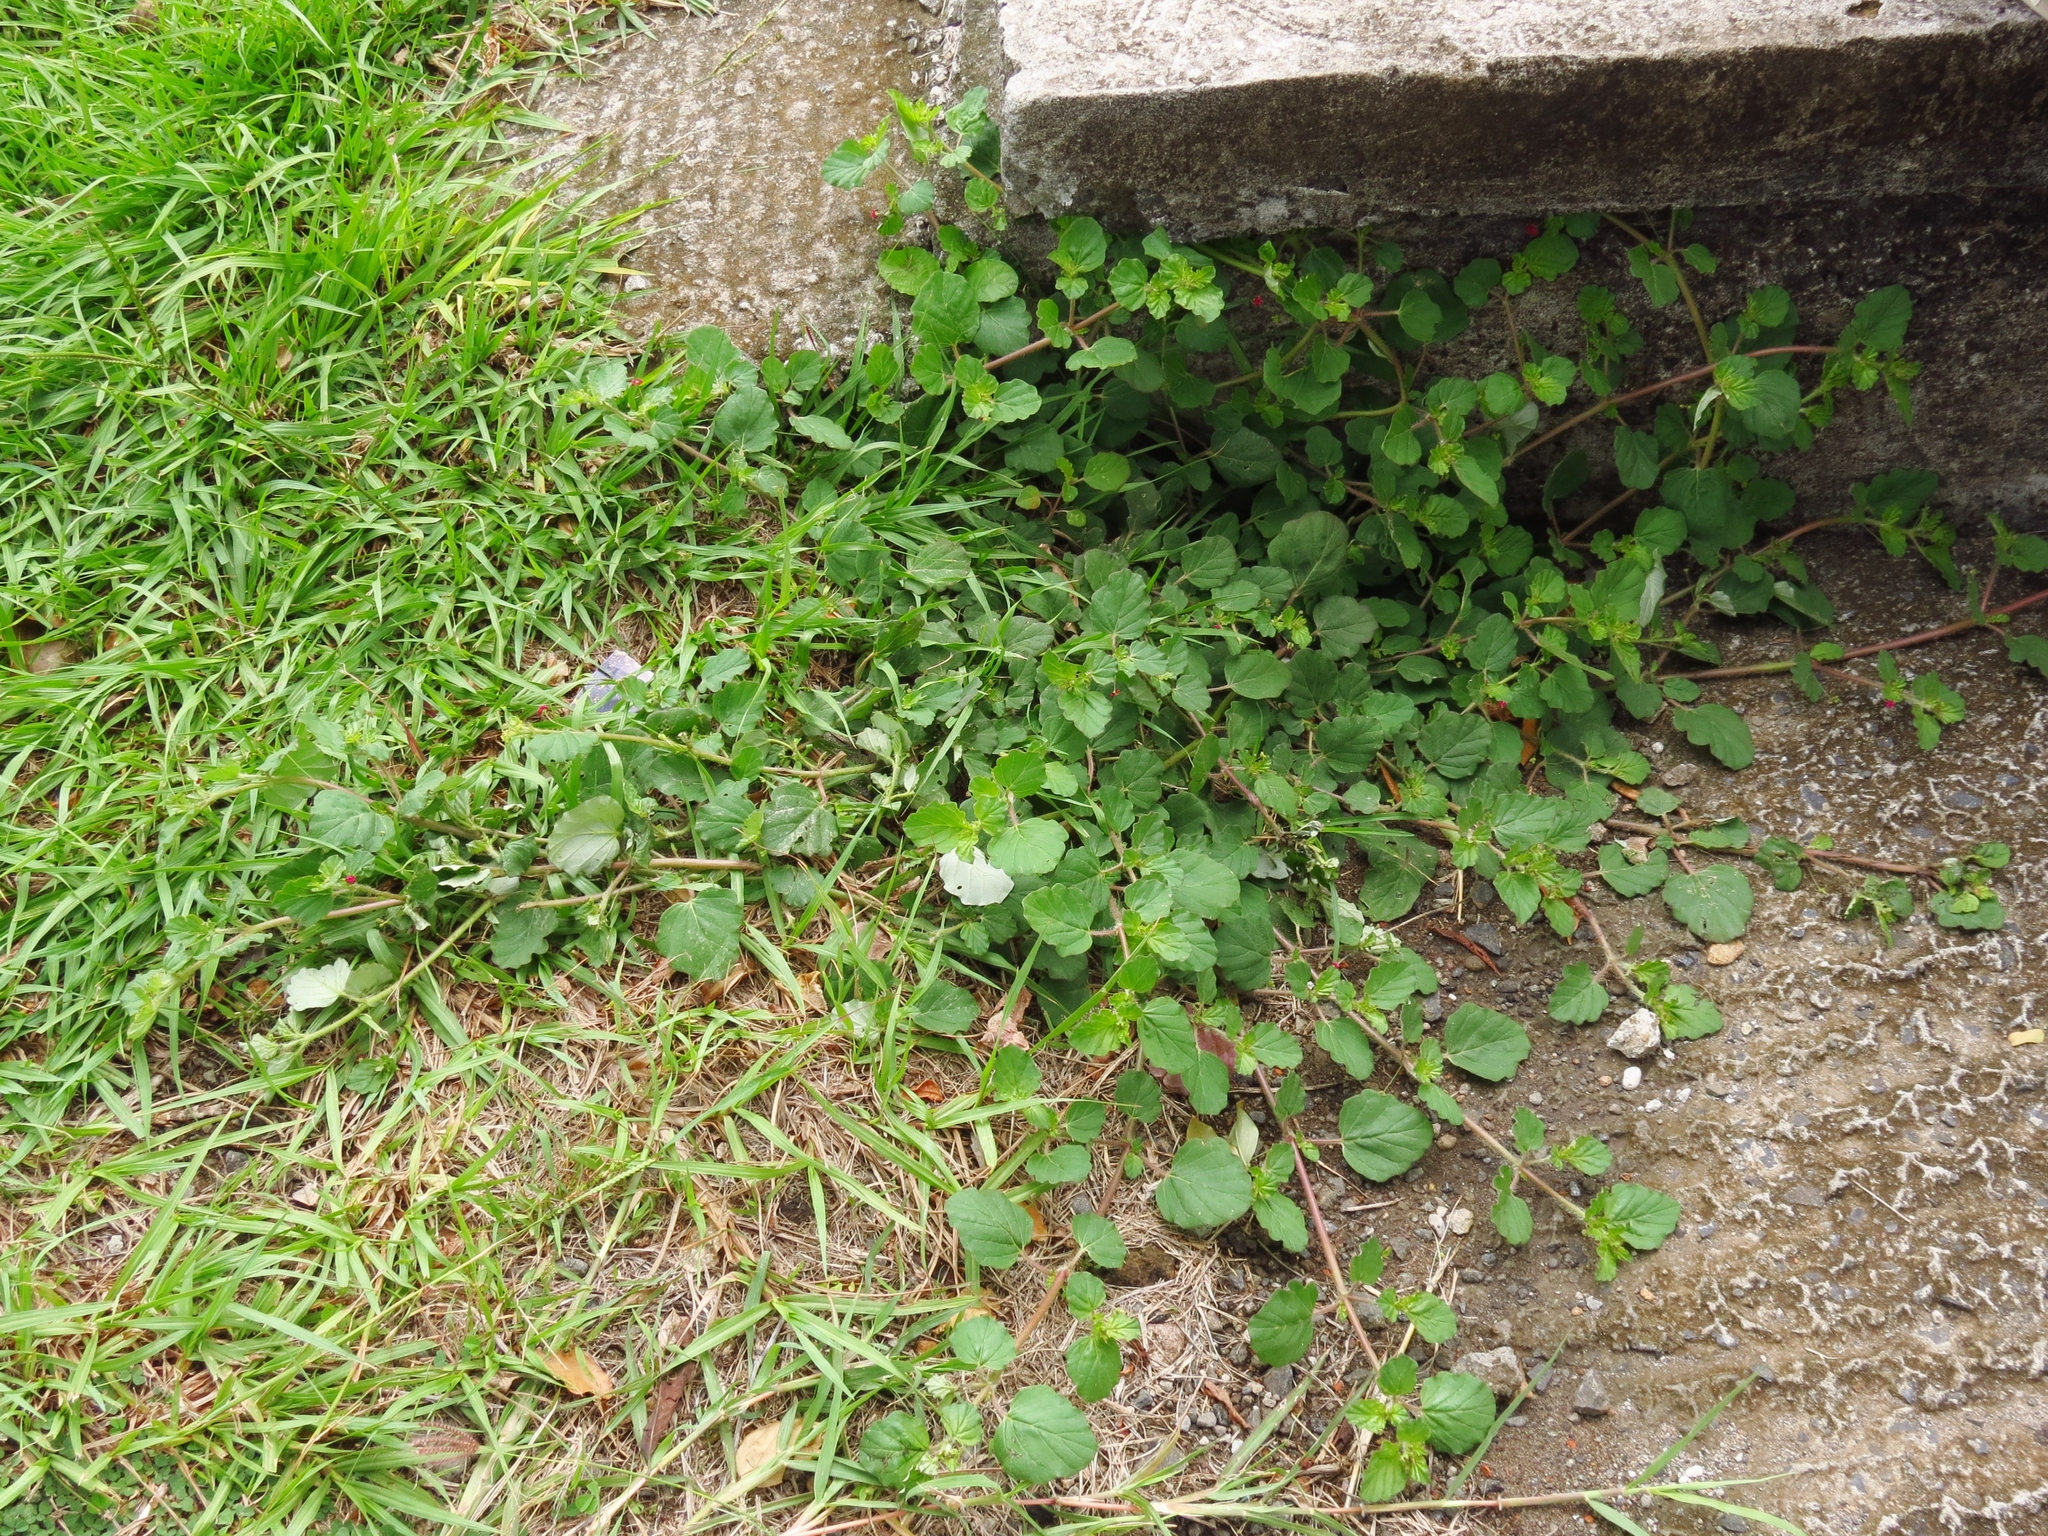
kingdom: Plantae
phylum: Tracheophyta
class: Magnoliopsida
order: Caryophyllales
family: Nyctaginaceae
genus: Boerhavia
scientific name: Boerhavia coccinea
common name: Scarlet spiderling
